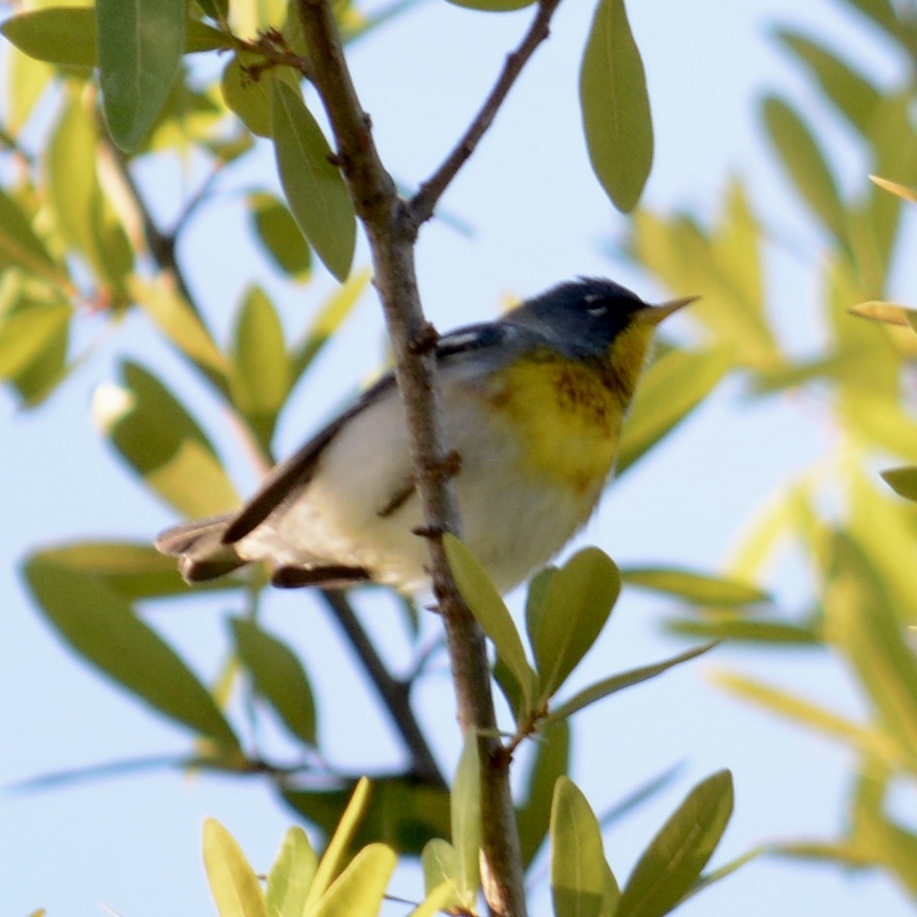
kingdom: Animalia
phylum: Chordata
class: Aves
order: Passeriformes
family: Parulidae
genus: Setophaga
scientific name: Setophaga americana
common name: Northern parula
